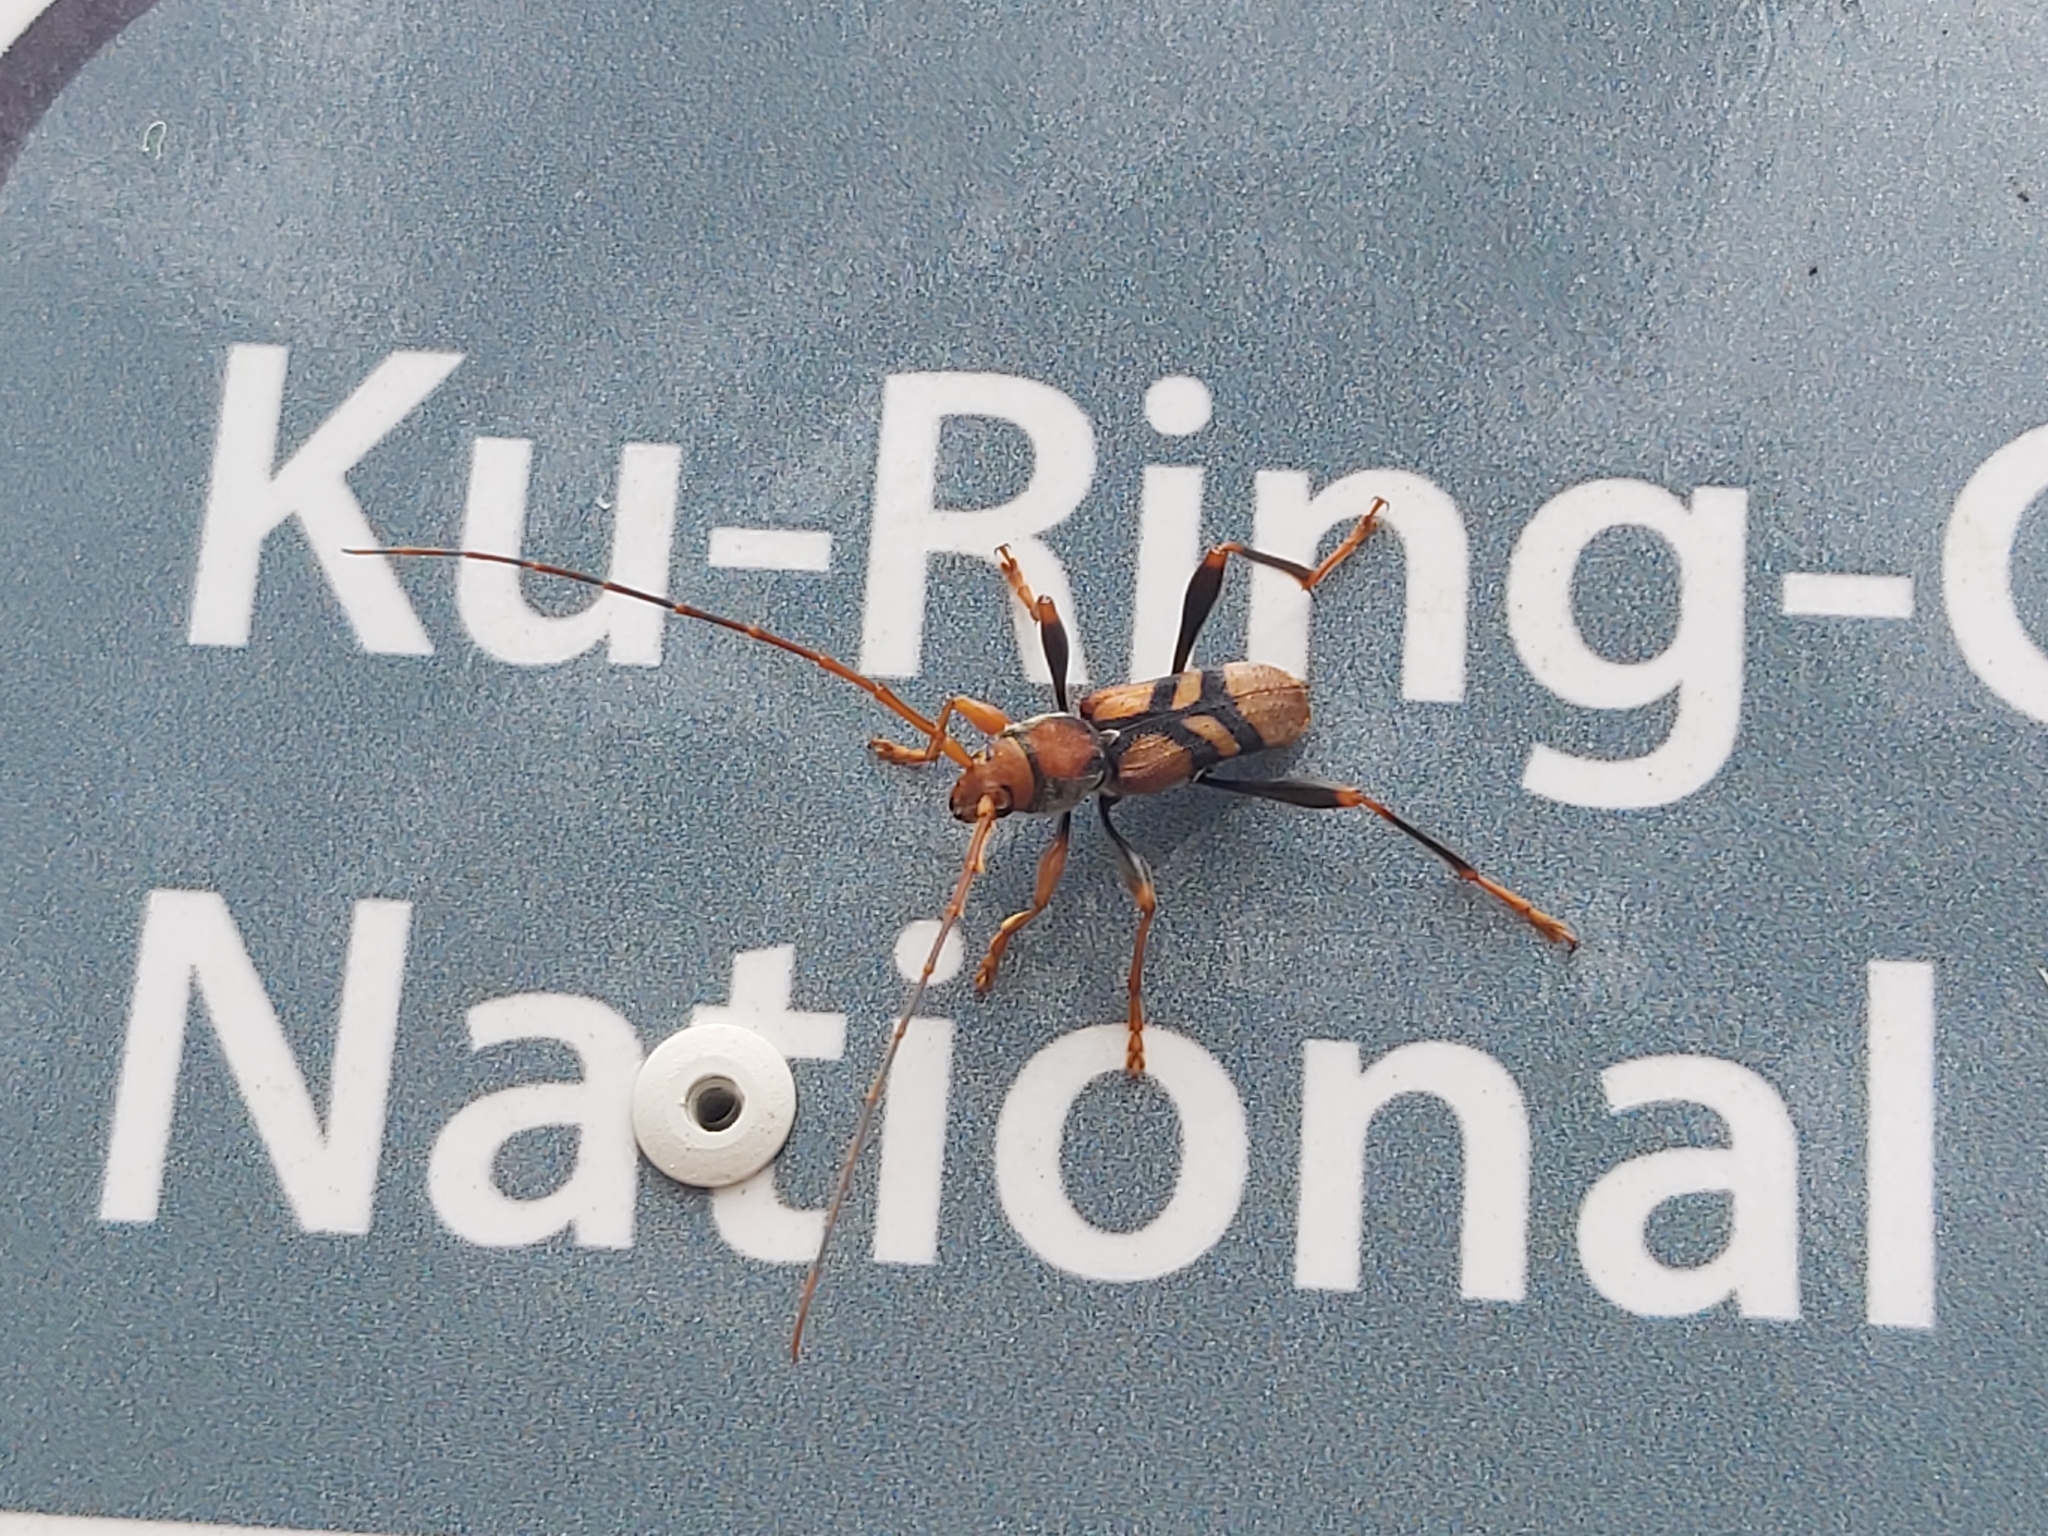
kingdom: Animalia
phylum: Arthropoda
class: Insecta
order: Coleoptera
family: Cerambycidae
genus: Aridaeus
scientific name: Aridaeus thoracicus
